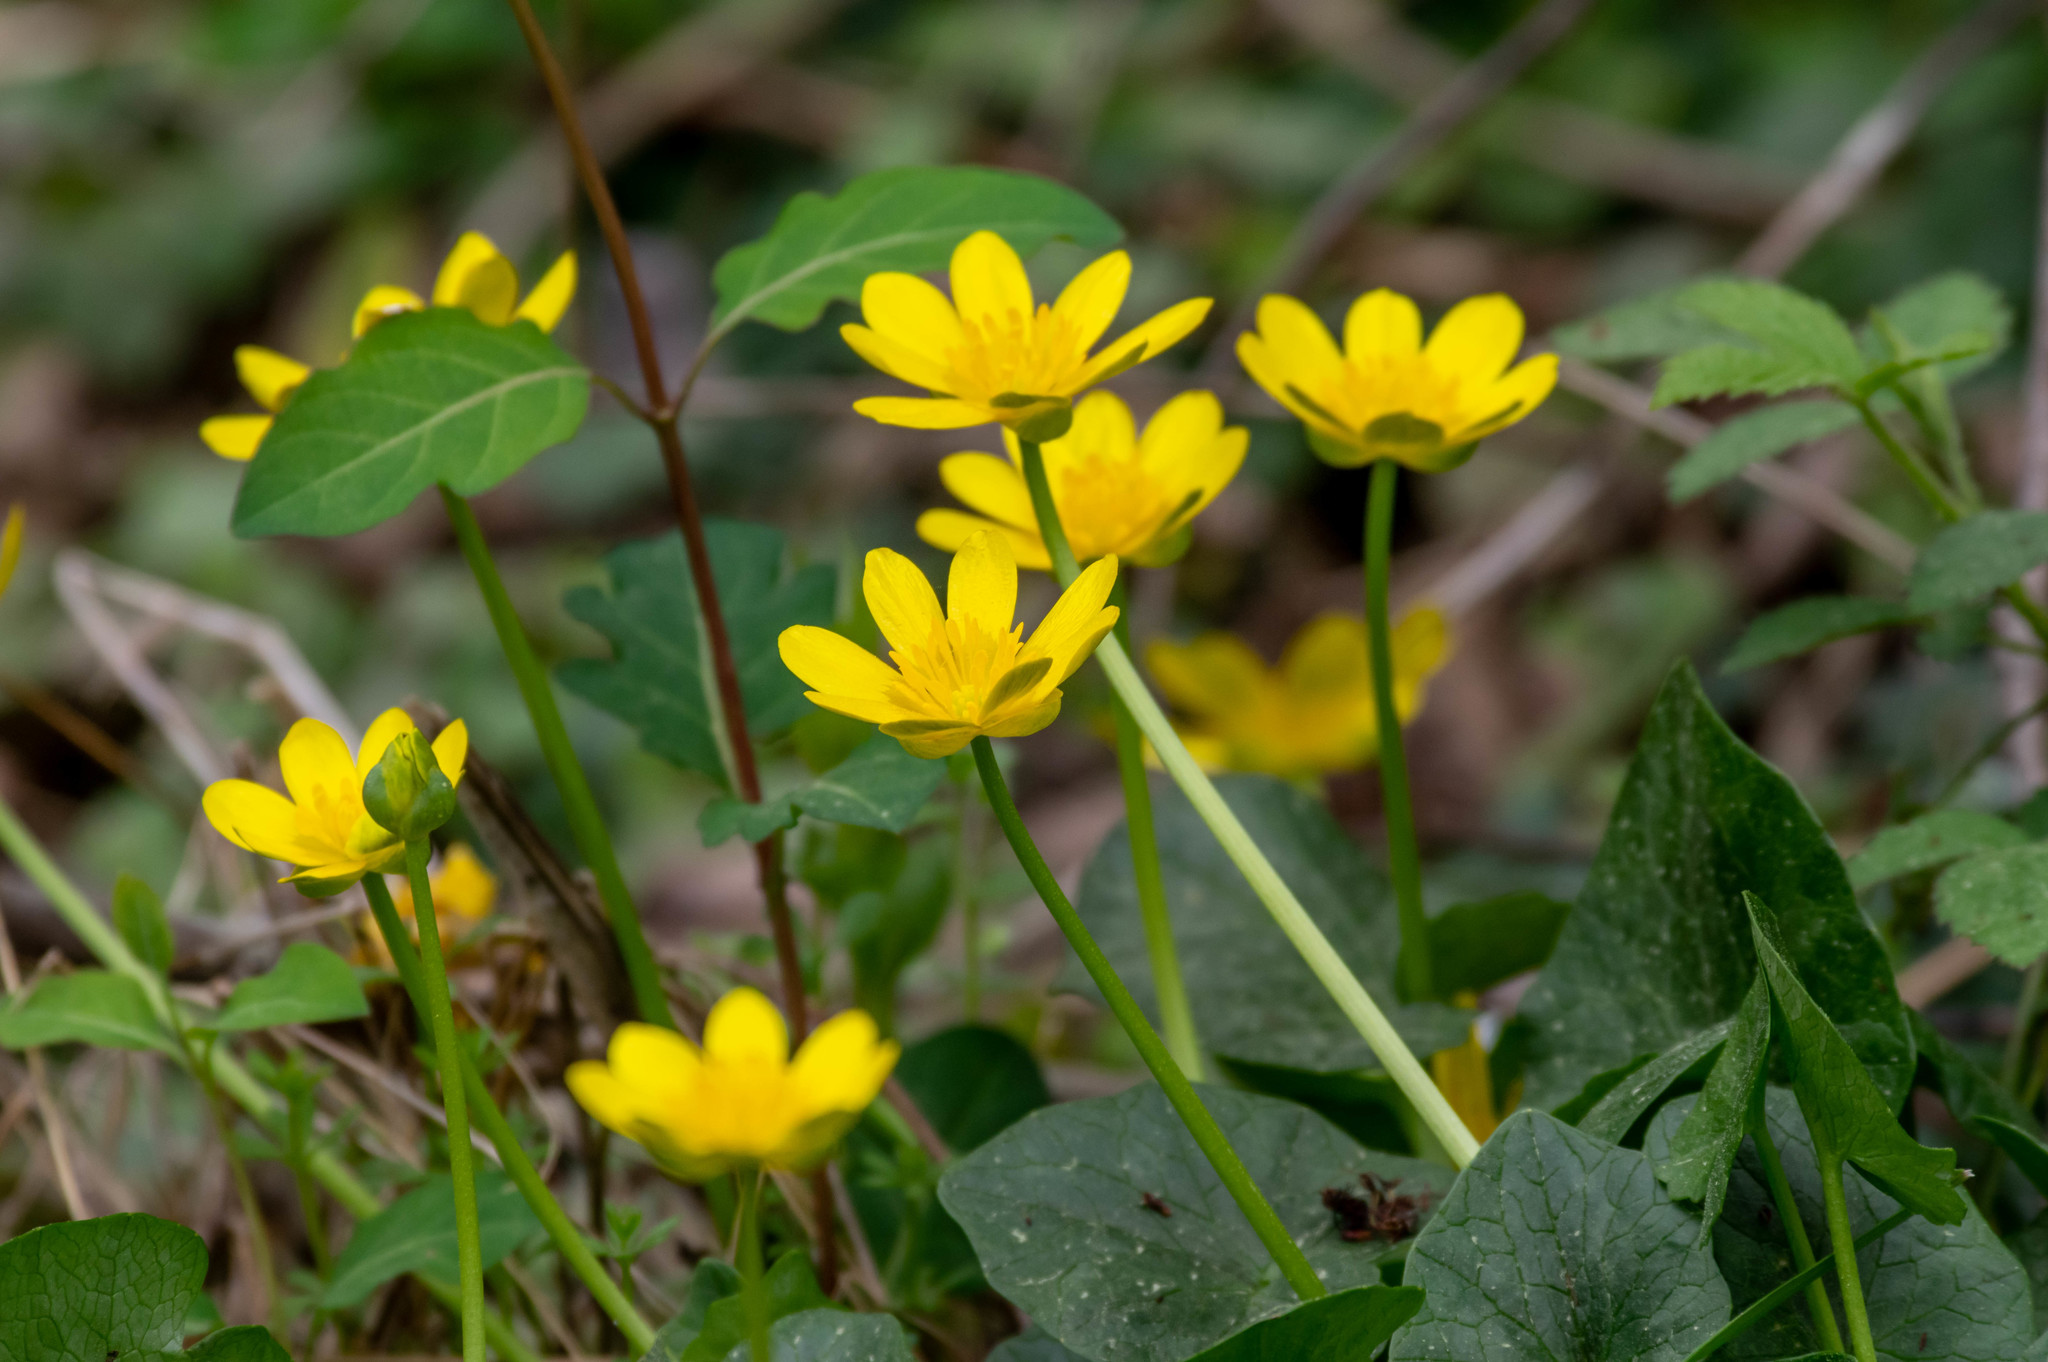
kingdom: Plantae
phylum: Tracheophyta
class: Magnoliopsida
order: Ranunculales
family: Ranunculaceae
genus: Ficaria
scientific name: Ficaria verna
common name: Lesser celandine
